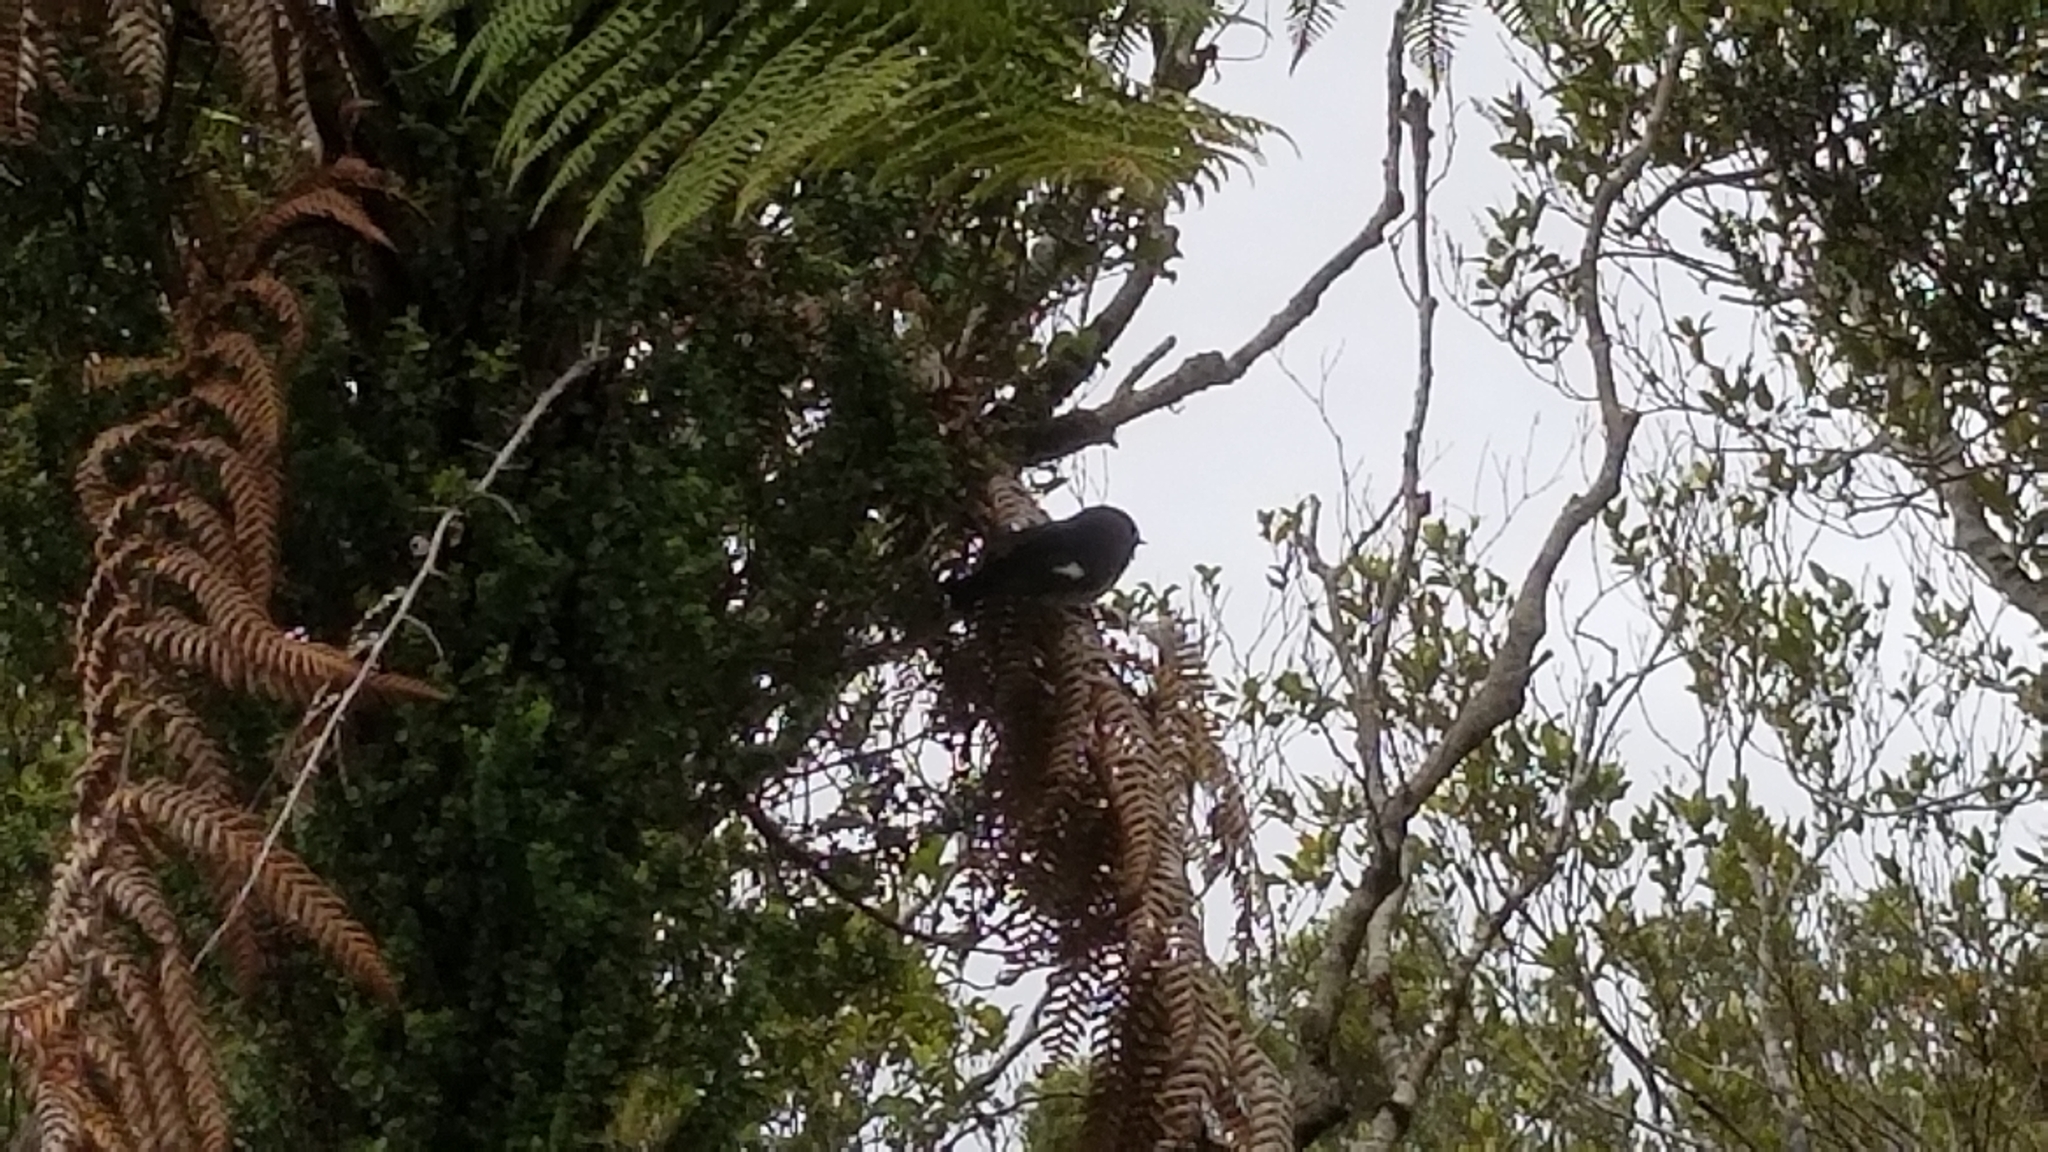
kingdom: Animalia
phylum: Chordata
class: Aves
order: Passeriformes
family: Petroicidae
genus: Petroica
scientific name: Petroica macrocephala
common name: Tomtit
